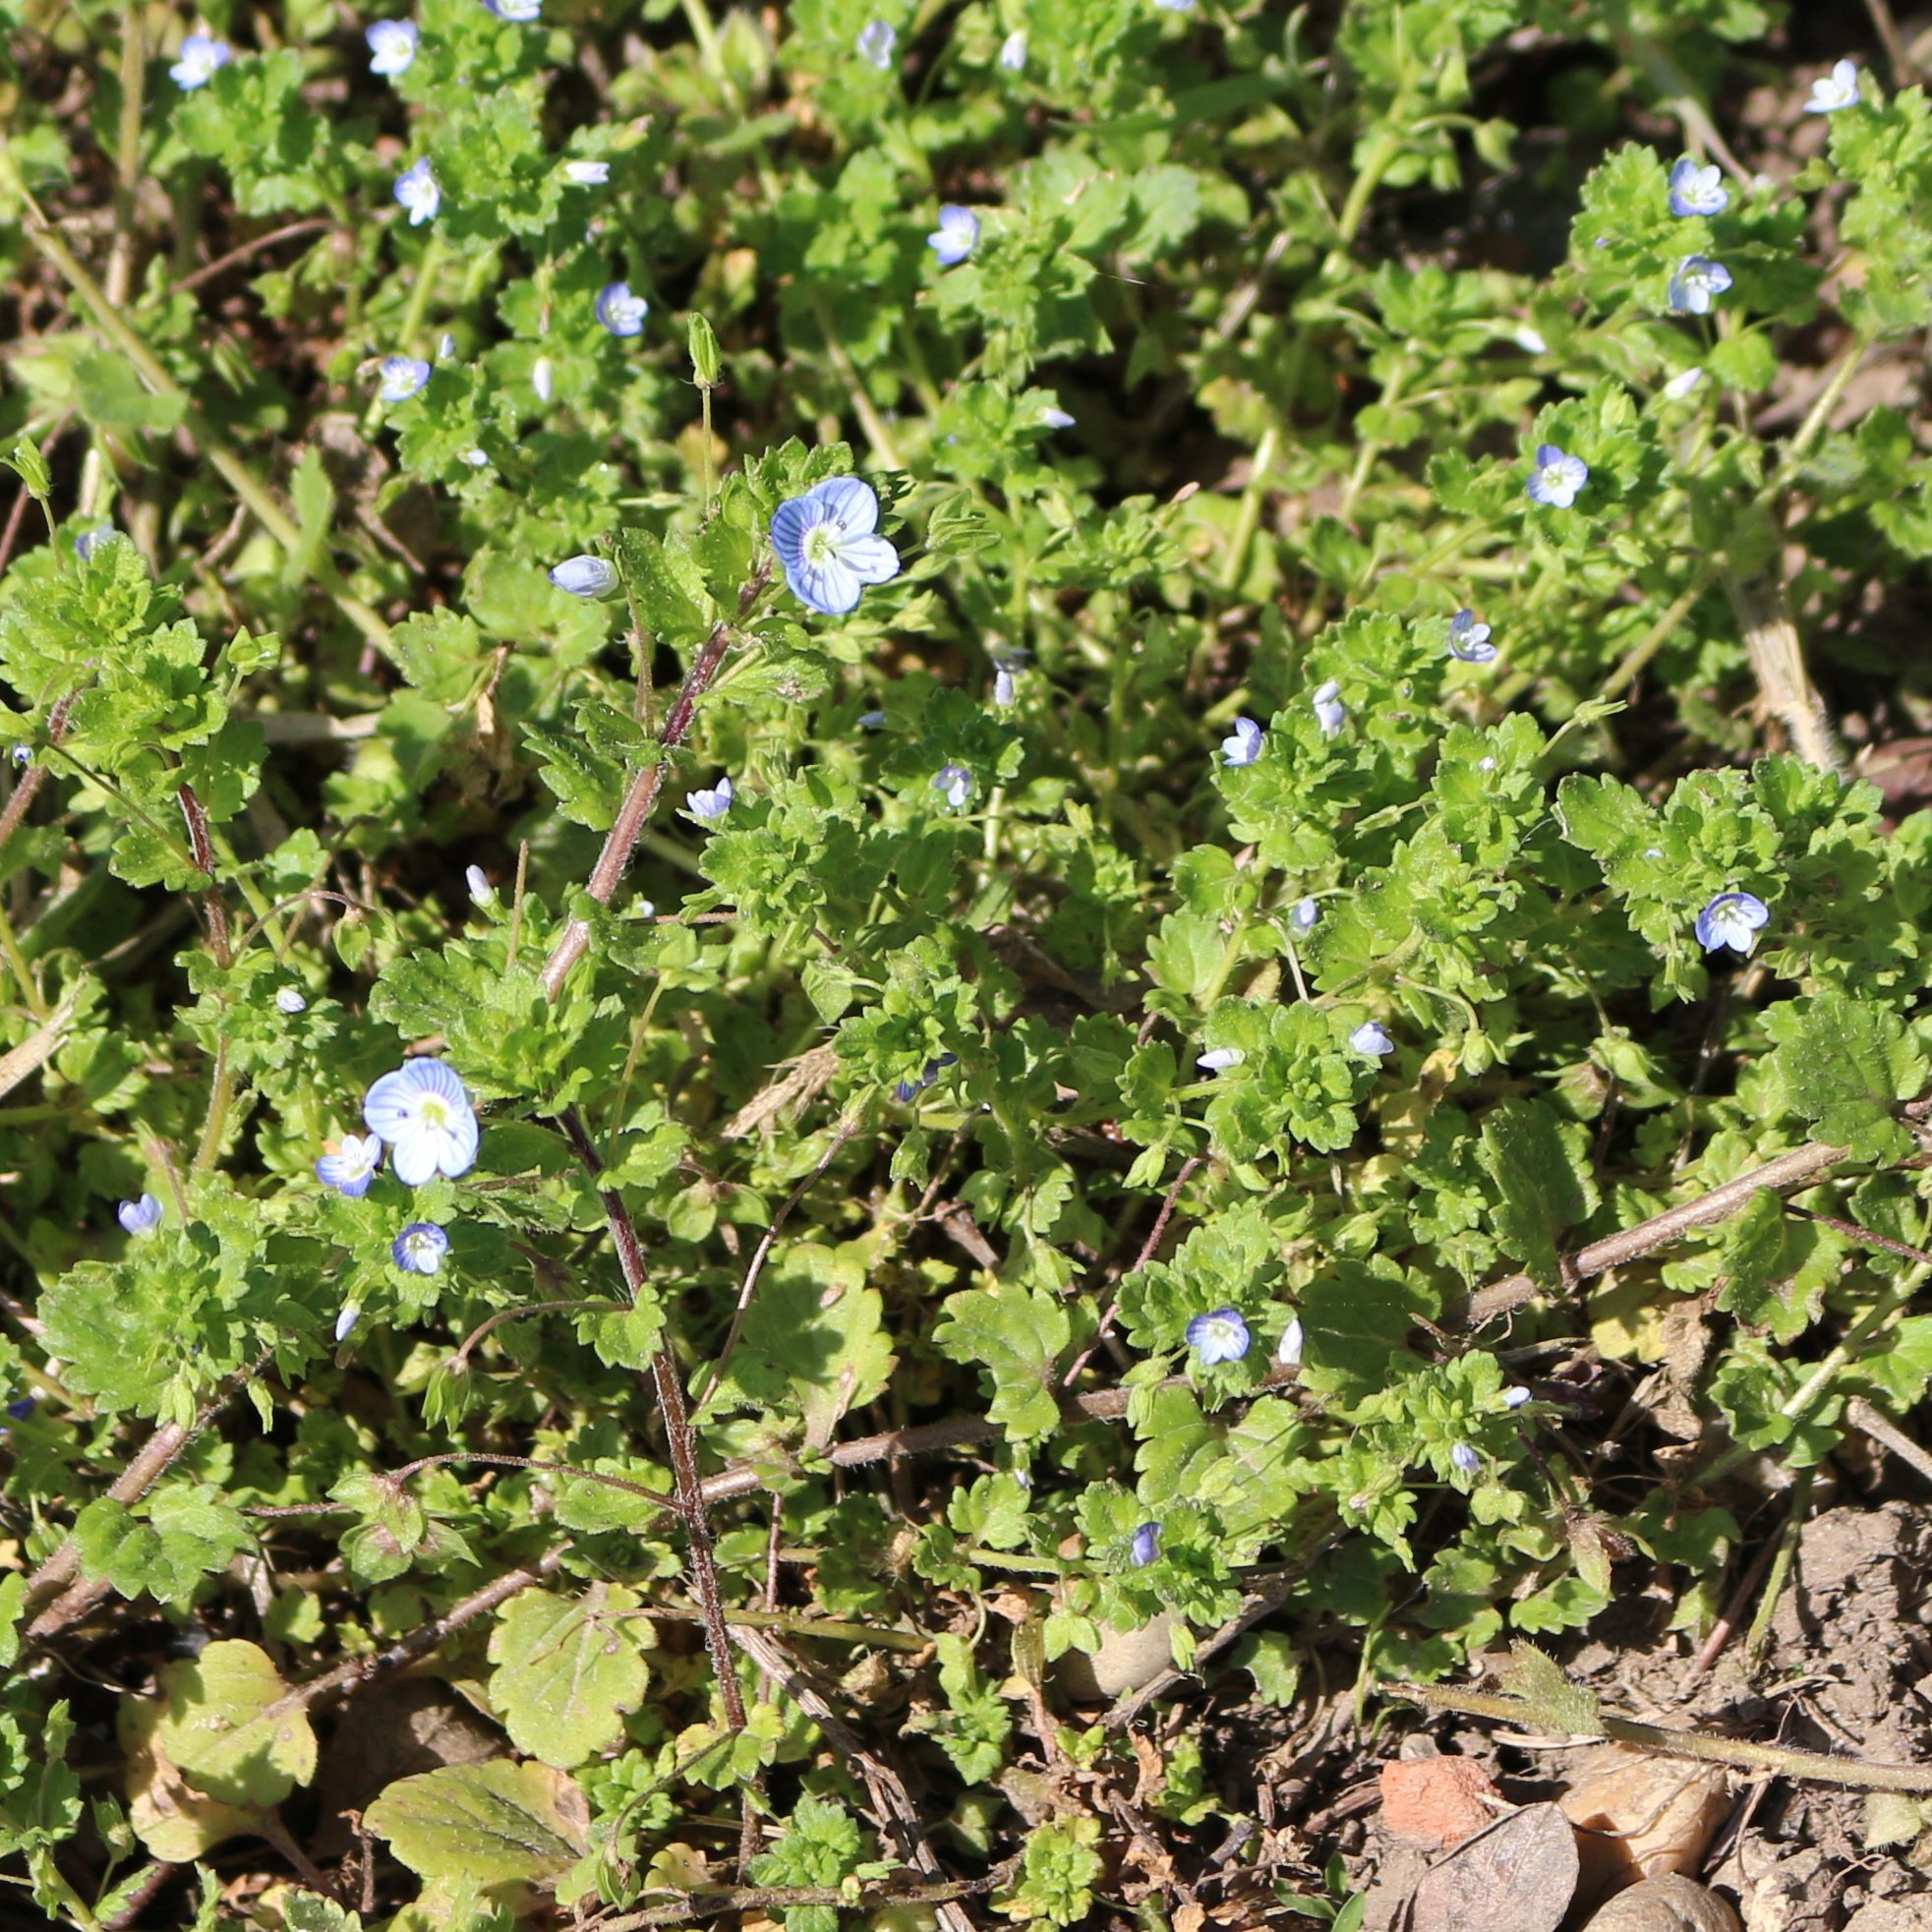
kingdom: Plantae
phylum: Tracheophyta
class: Magnoliopsida
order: Lamiales
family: Plantaginaceae
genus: Veronica
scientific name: Veronica polita
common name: Grey field-speedwell
